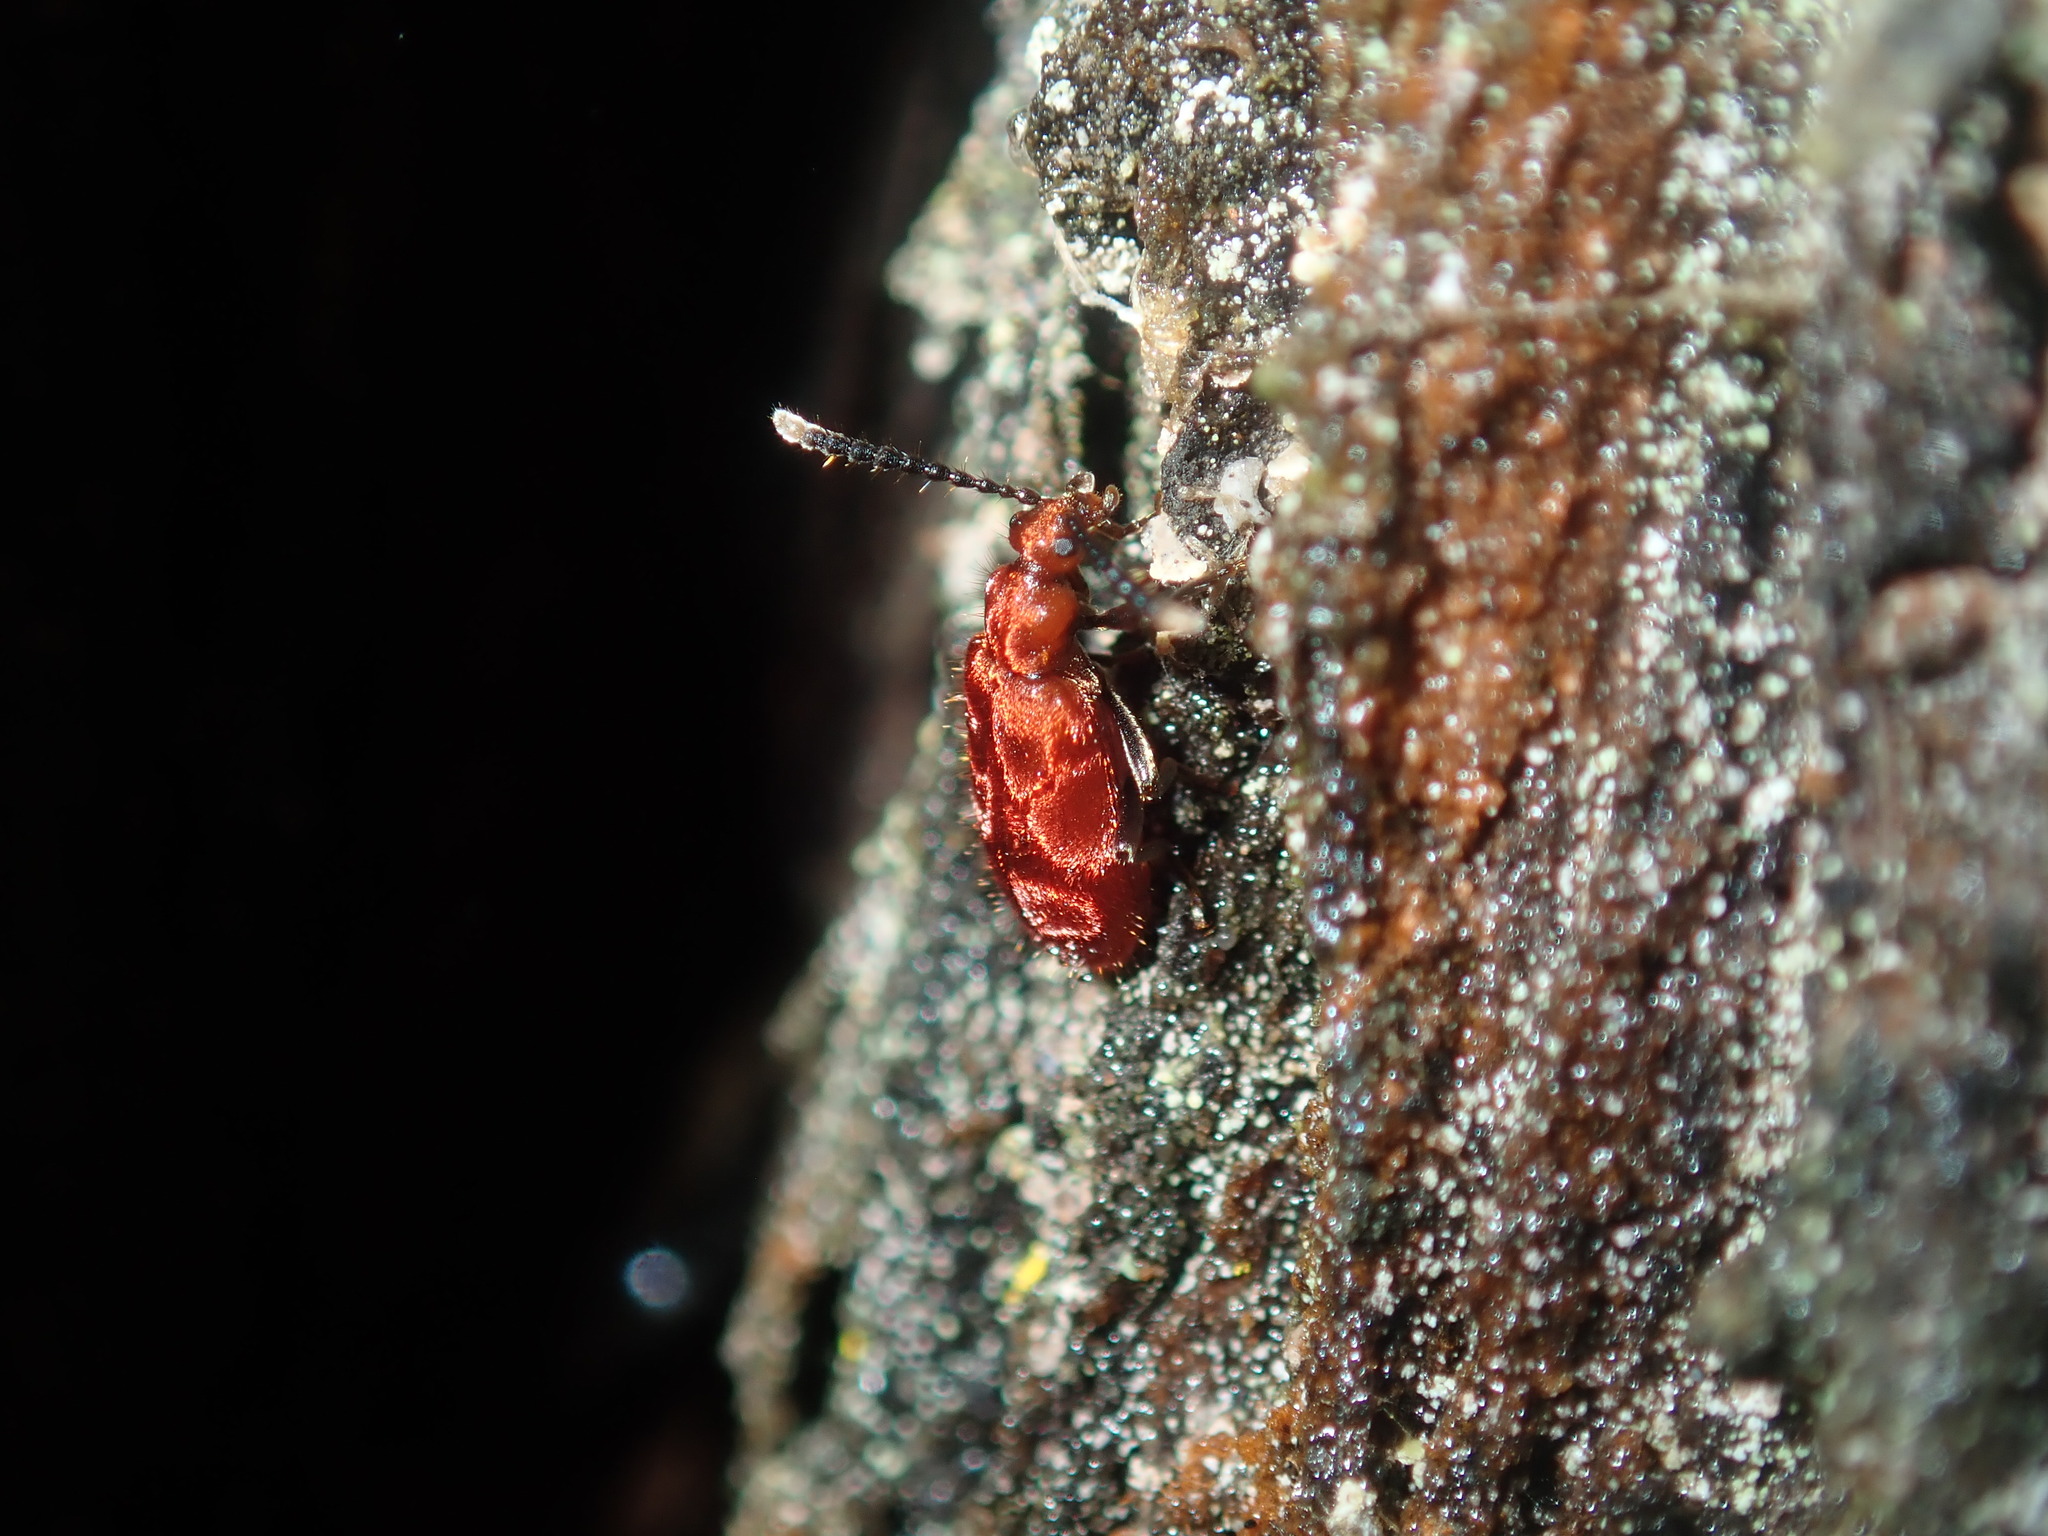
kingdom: Animalia
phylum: Arthropoda
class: Insecta
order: Coleoptera
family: Anthicidae
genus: Lemodes
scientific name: Lemodes
